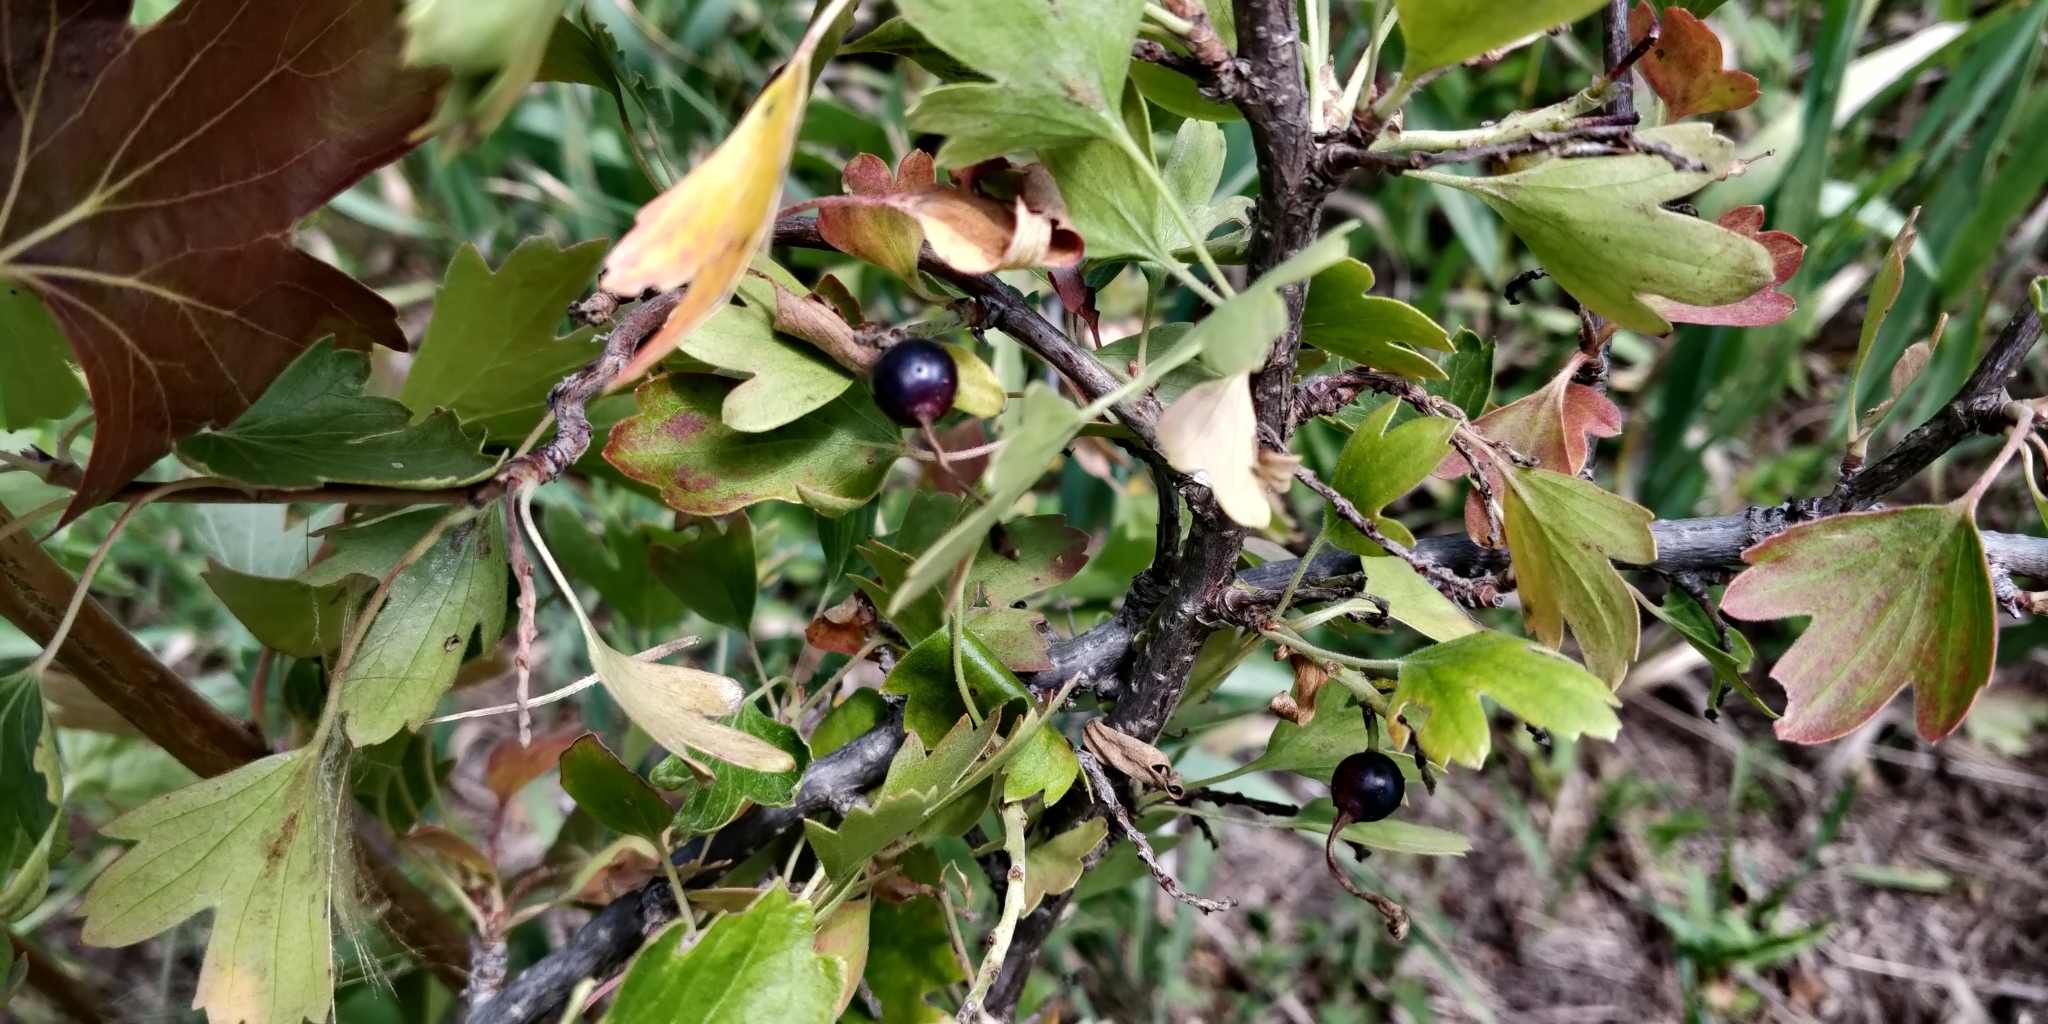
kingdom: Plantae
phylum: Tracheophyta
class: Magnoliopsida
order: Saxifragales
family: Grossulariaceae
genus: Ribes
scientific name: Ribes aureum
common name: Golden currant
